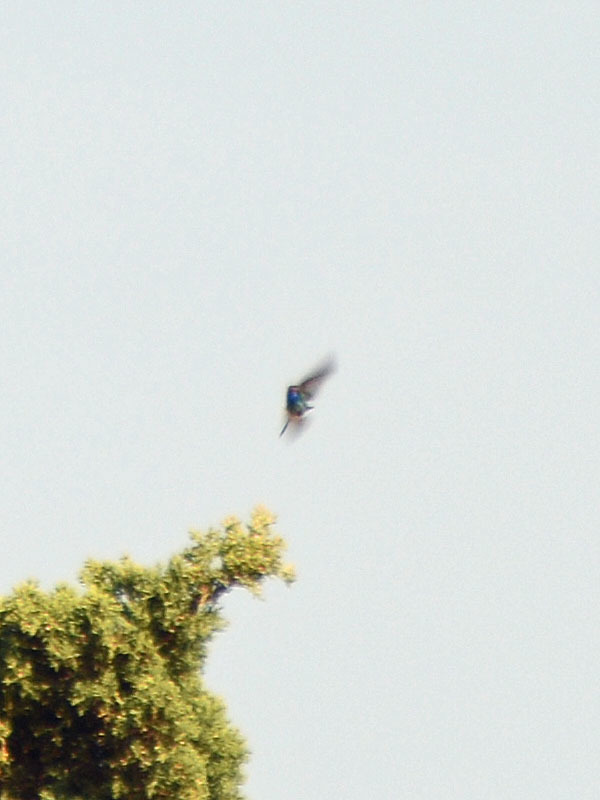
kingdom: Animalia
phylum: Chordata
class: Aves
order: Apodiformes
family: Trochilidae
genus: Cynanthus
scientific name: Cynanthus latirostris
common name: Broad-billed hummingbird
